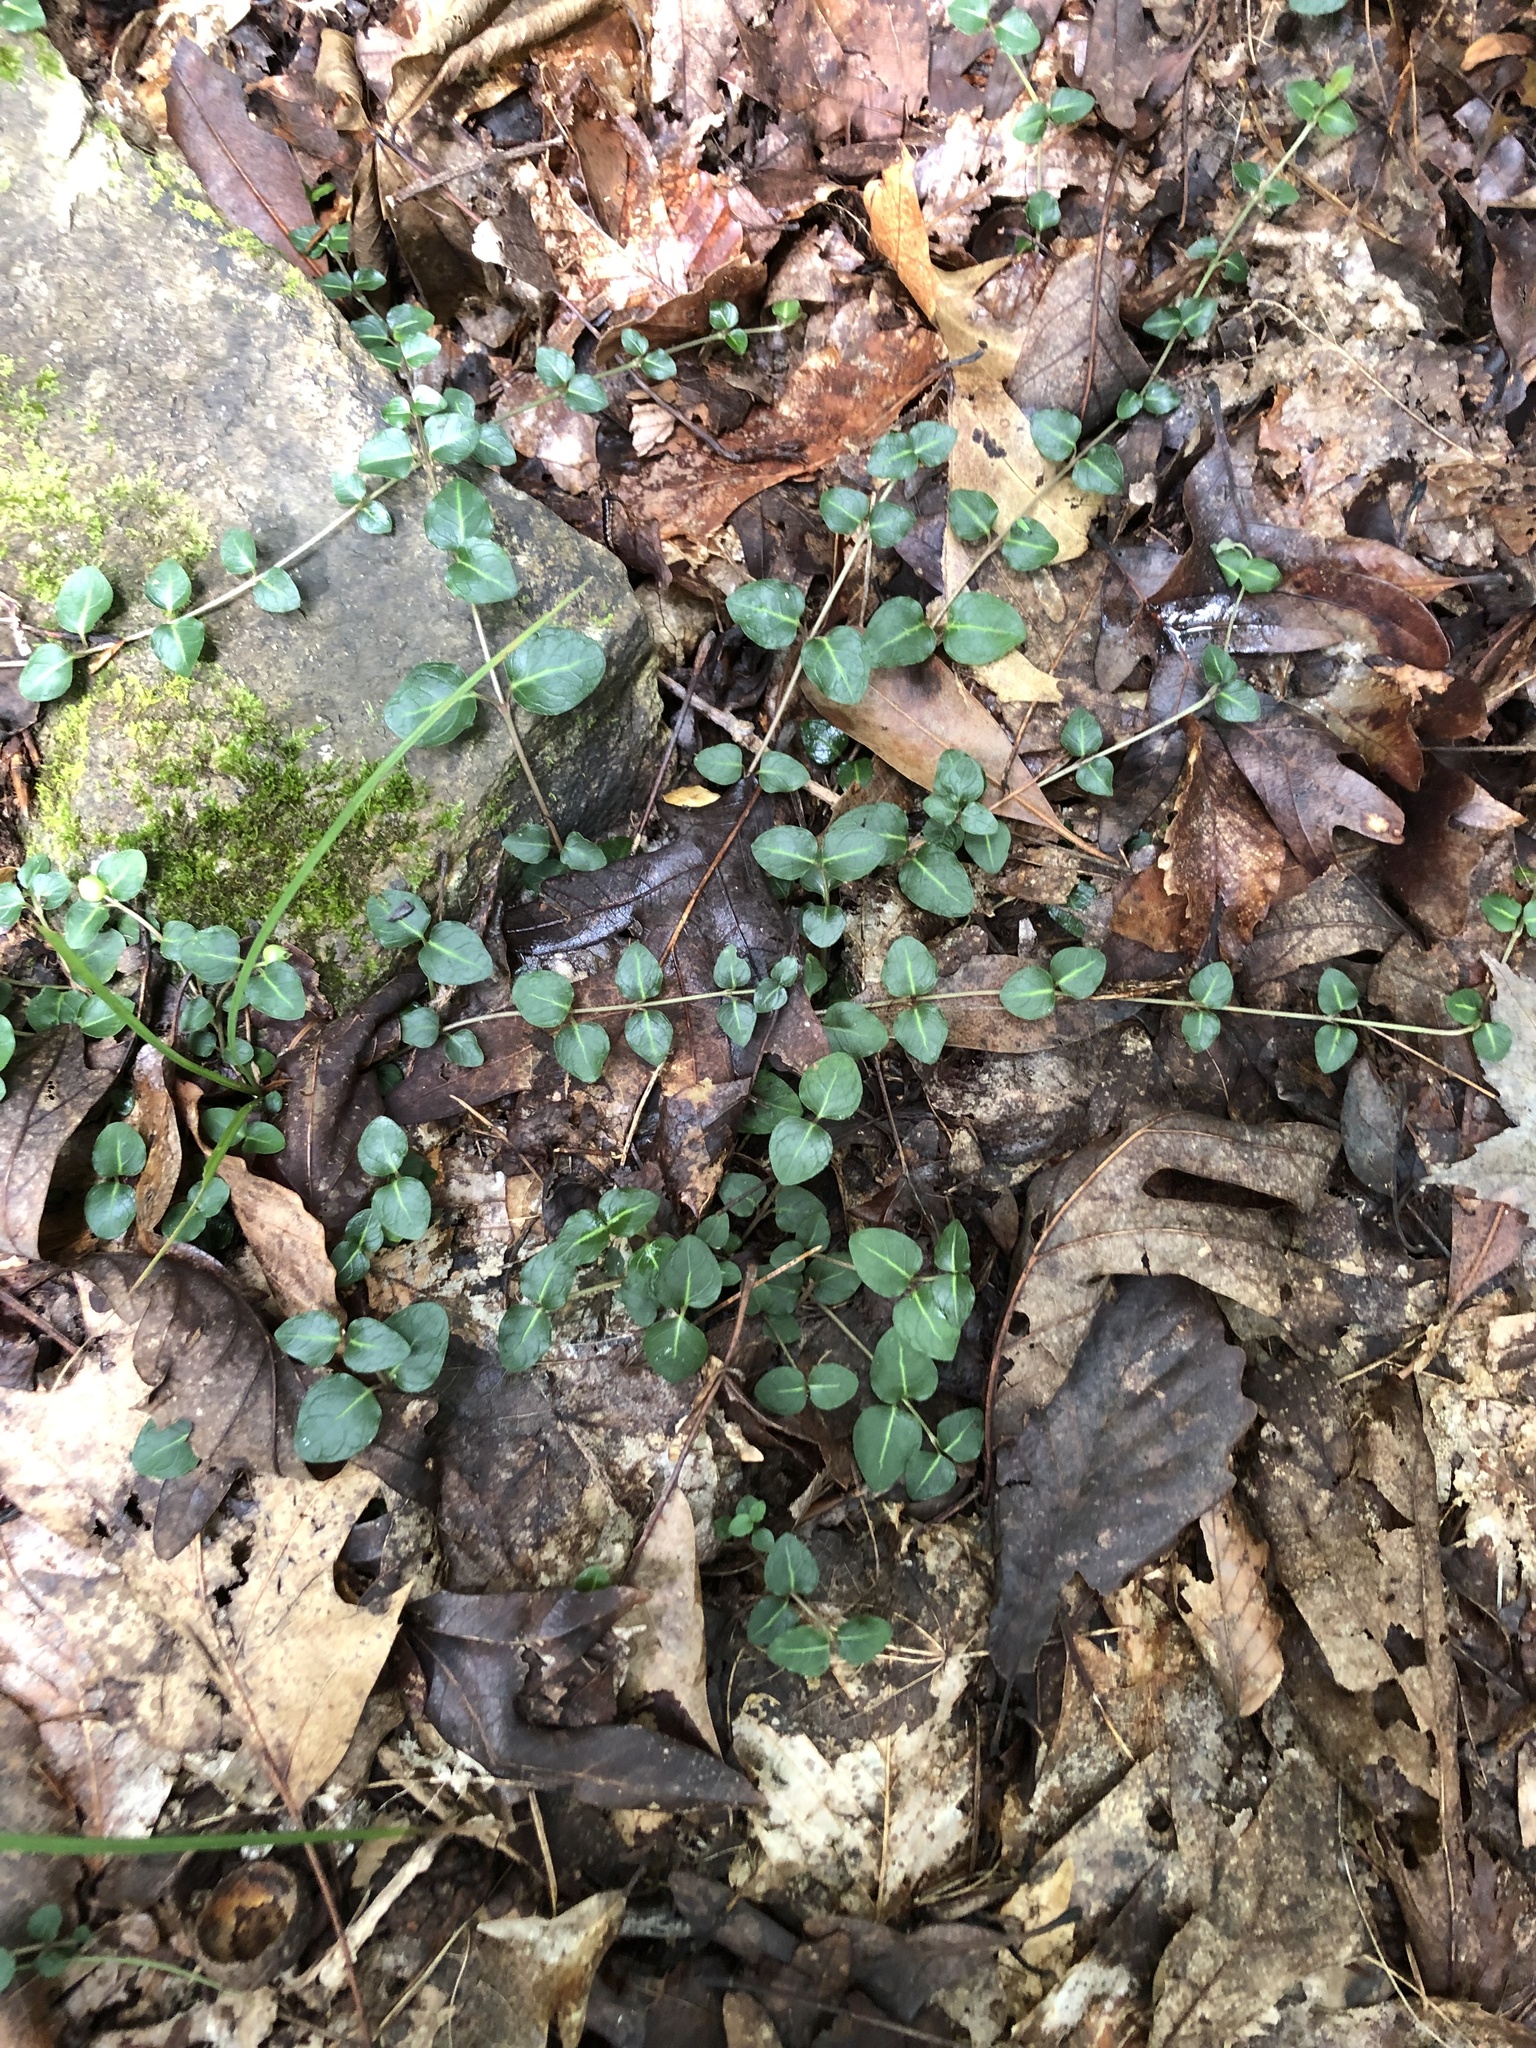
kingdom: Plantae
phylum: Tracheophyta
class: Magnoliopsida
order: Gentianales
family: Rubiaceae
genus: Mitchella
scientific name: Mitchella repens
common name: Partridge-berry
